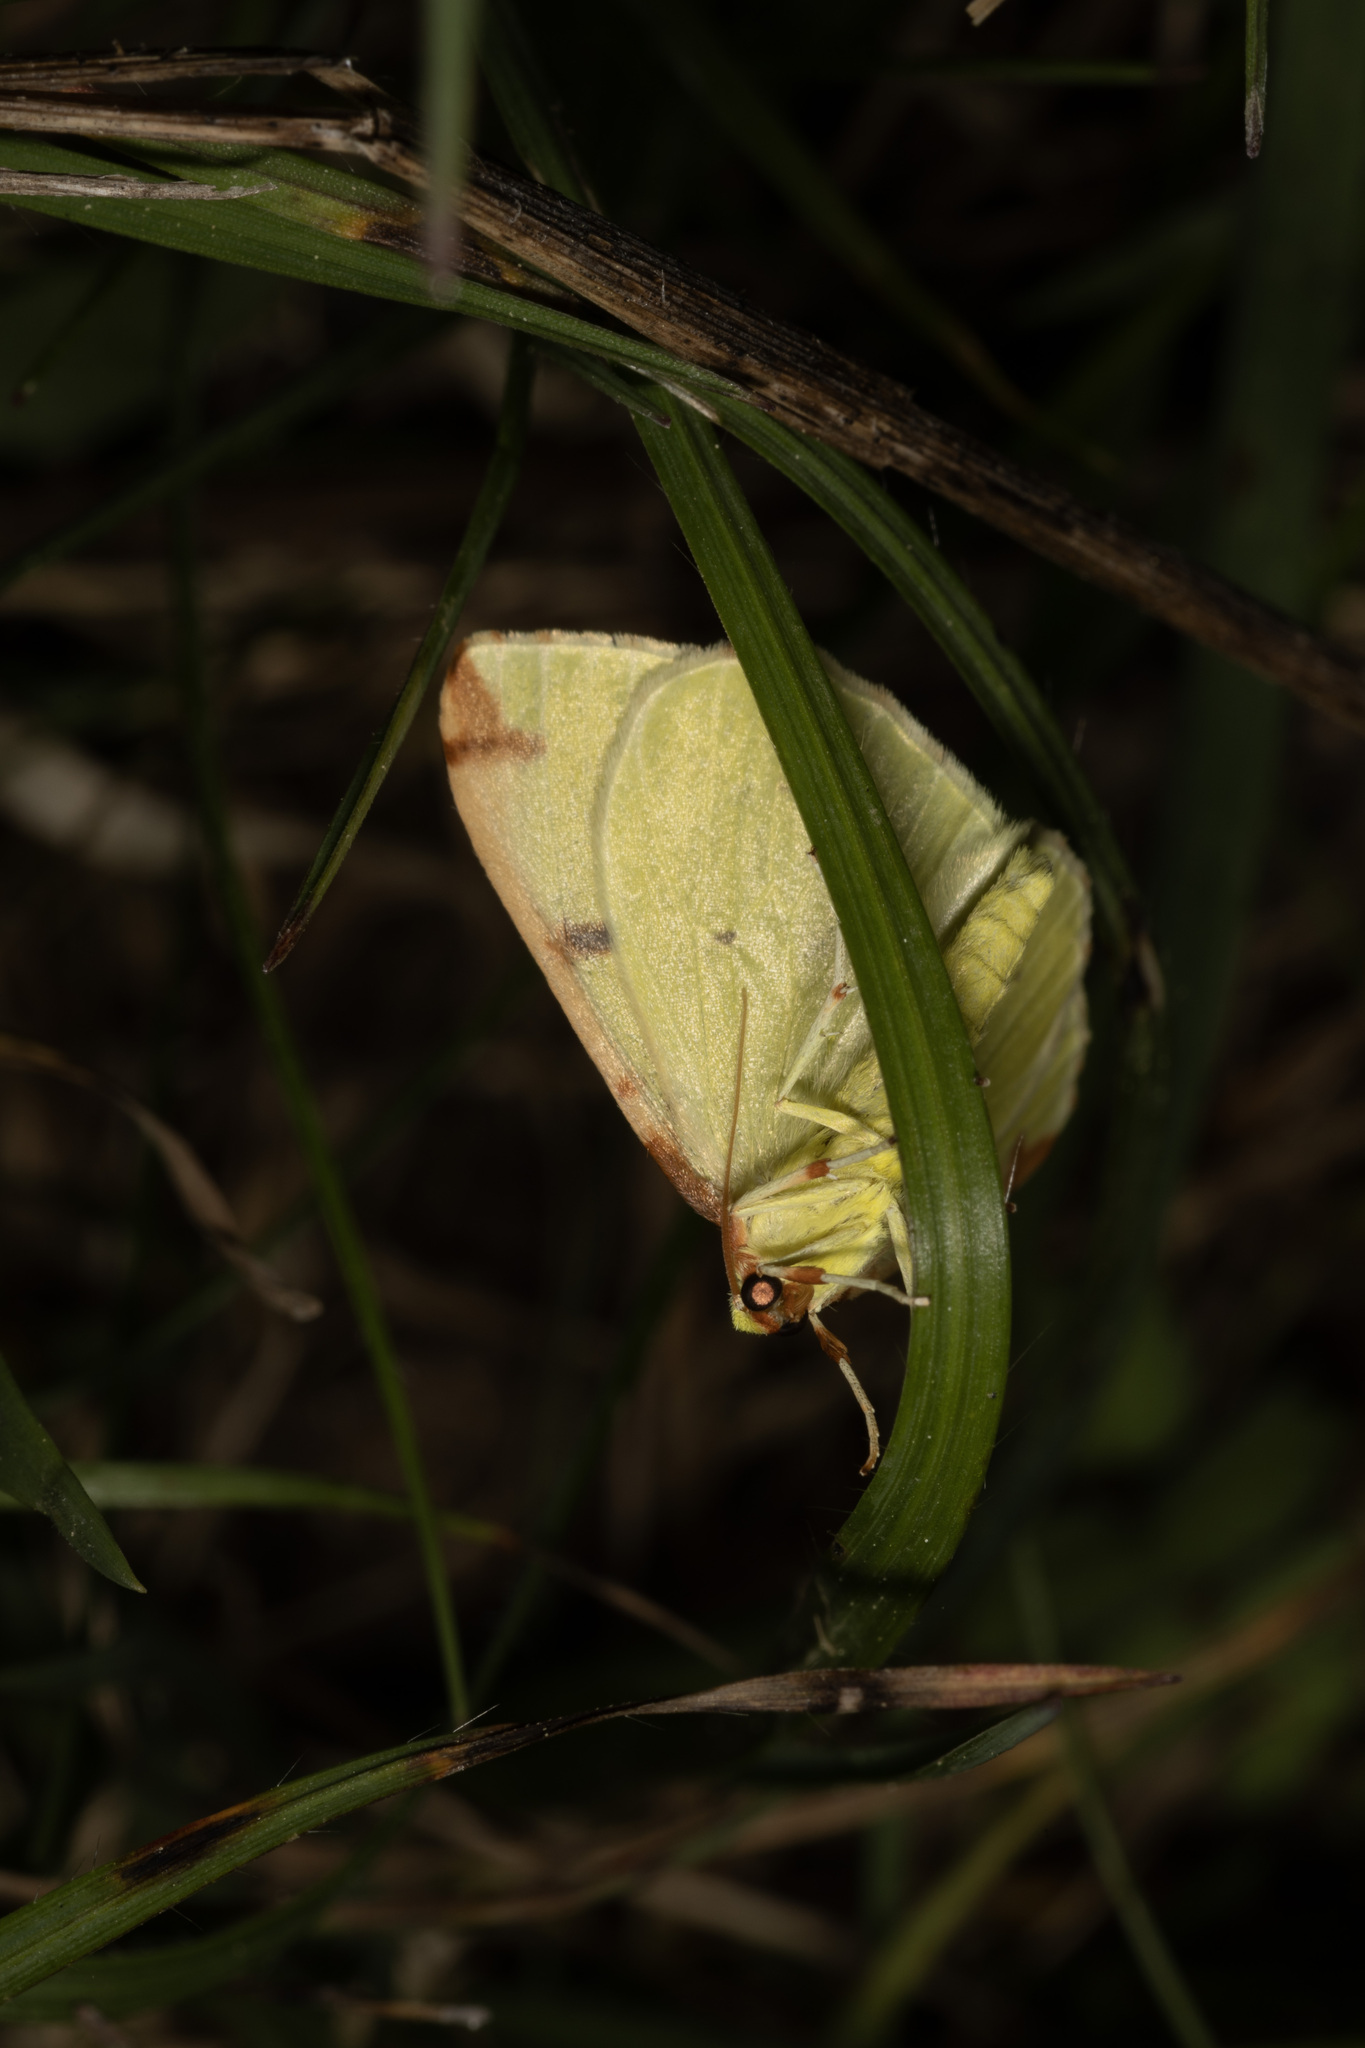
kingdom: Animalia
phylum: Arthropoda
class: Insecta
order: Lepidoptera
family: Geometridae
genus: Opisthograptis
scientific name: Opisthograptis luteolata
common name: Brimstone moth
